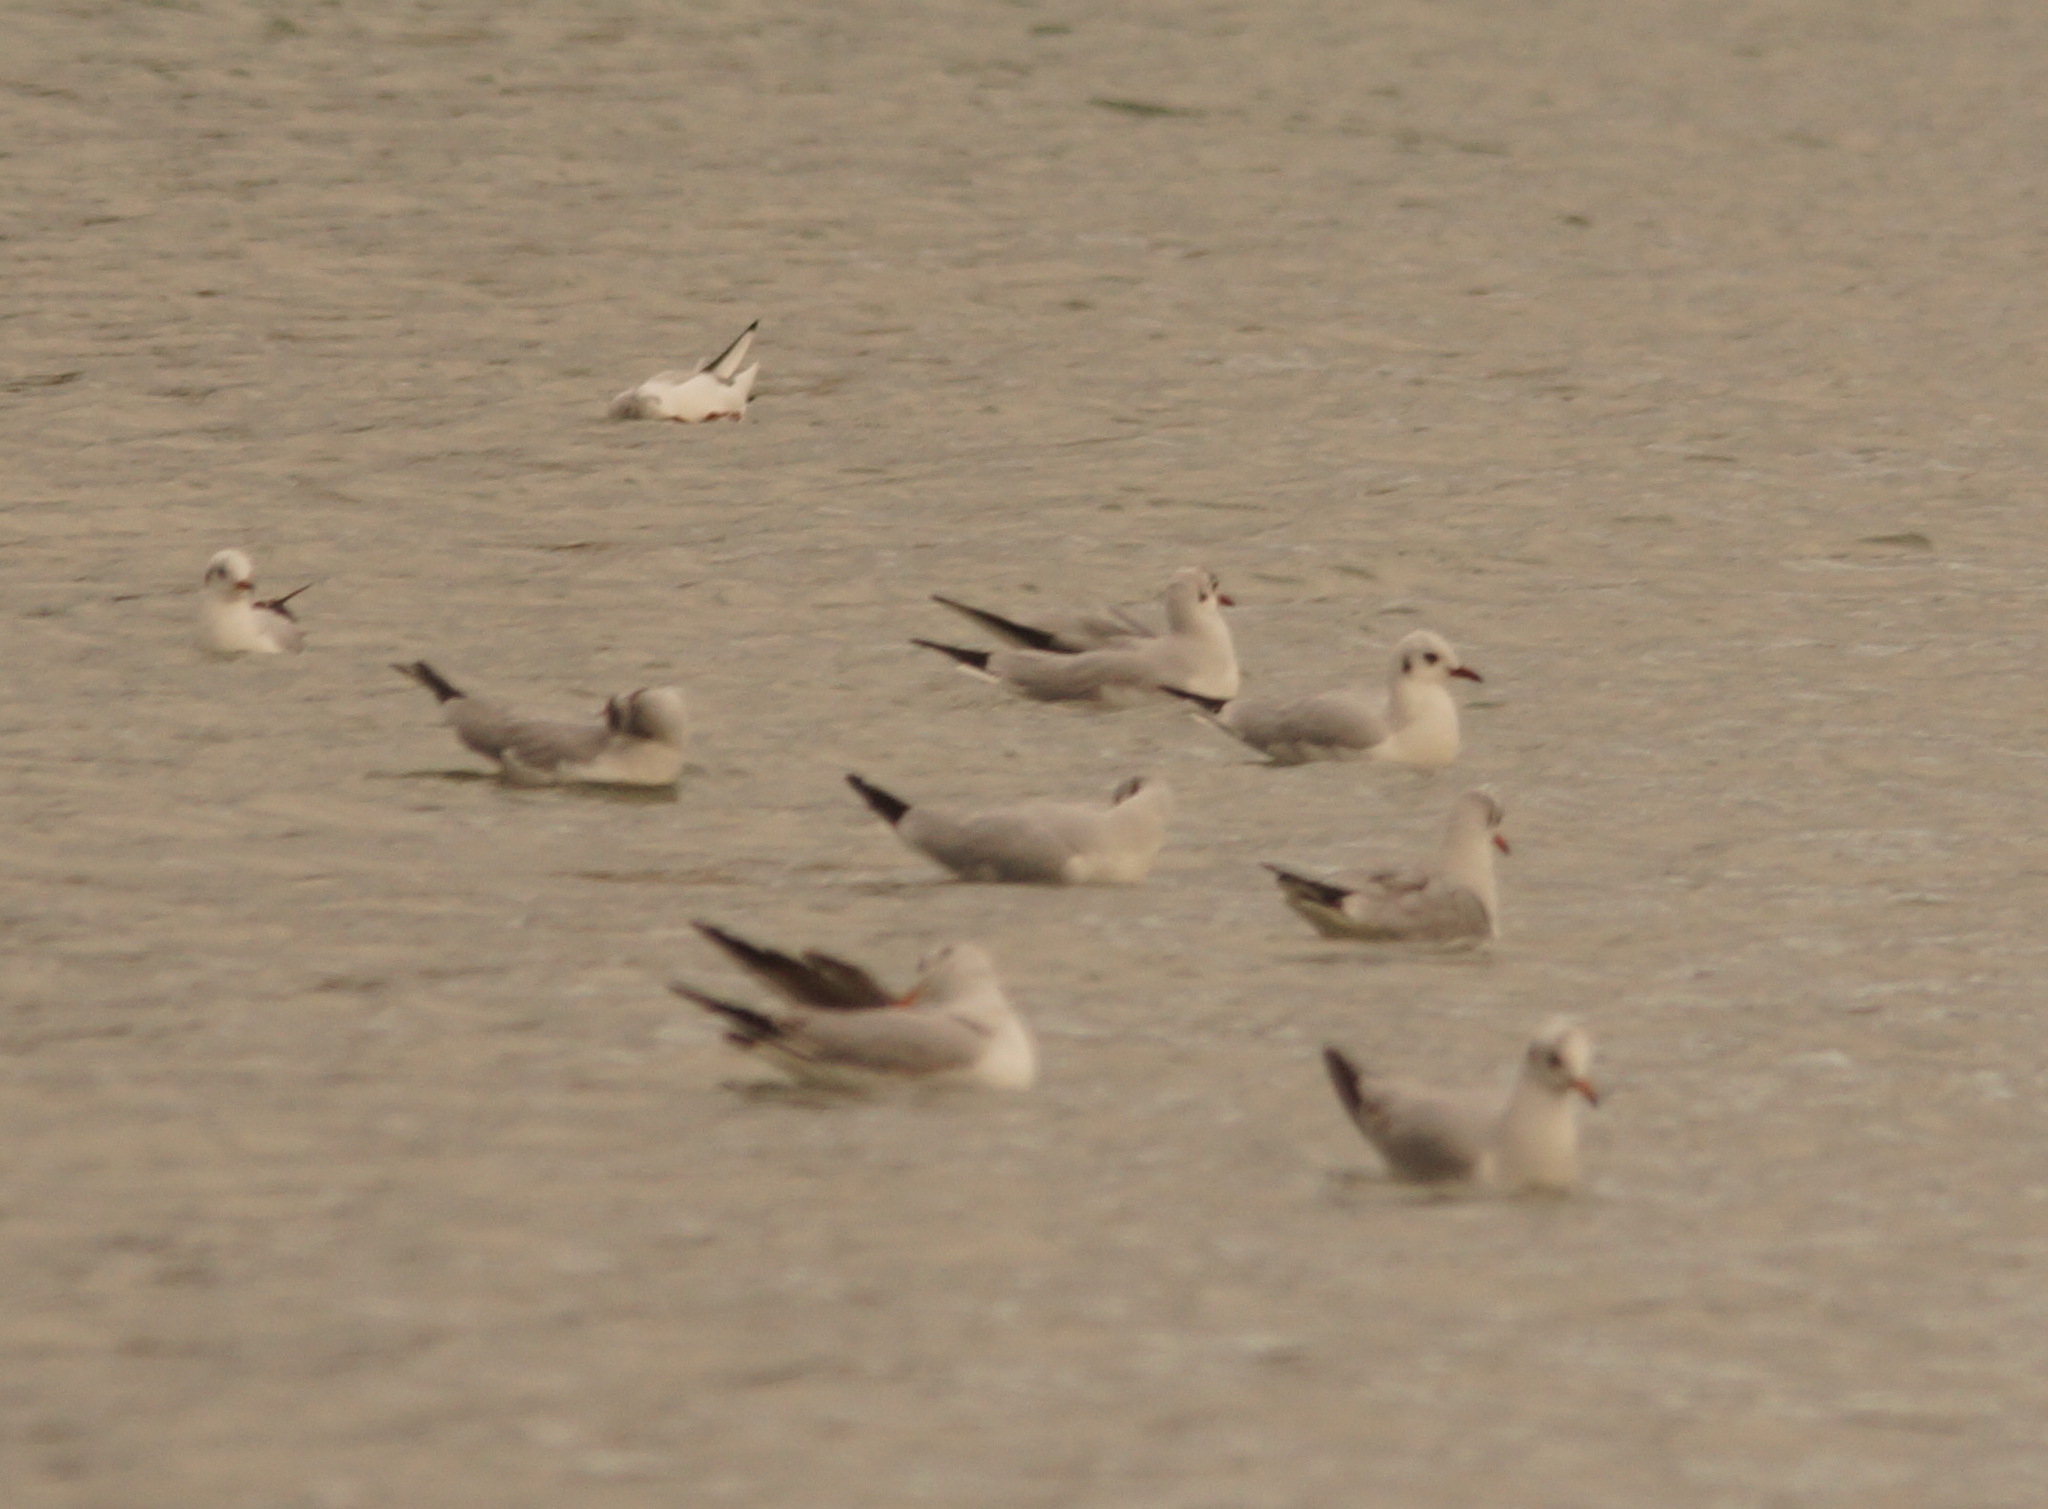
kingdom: Animalia
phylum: Chordata
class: Aves
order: Charadriiformes
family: Laridae
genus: Chroicocephalus
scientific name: Chroicocephalus ridibundus
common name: Black-headed gull
